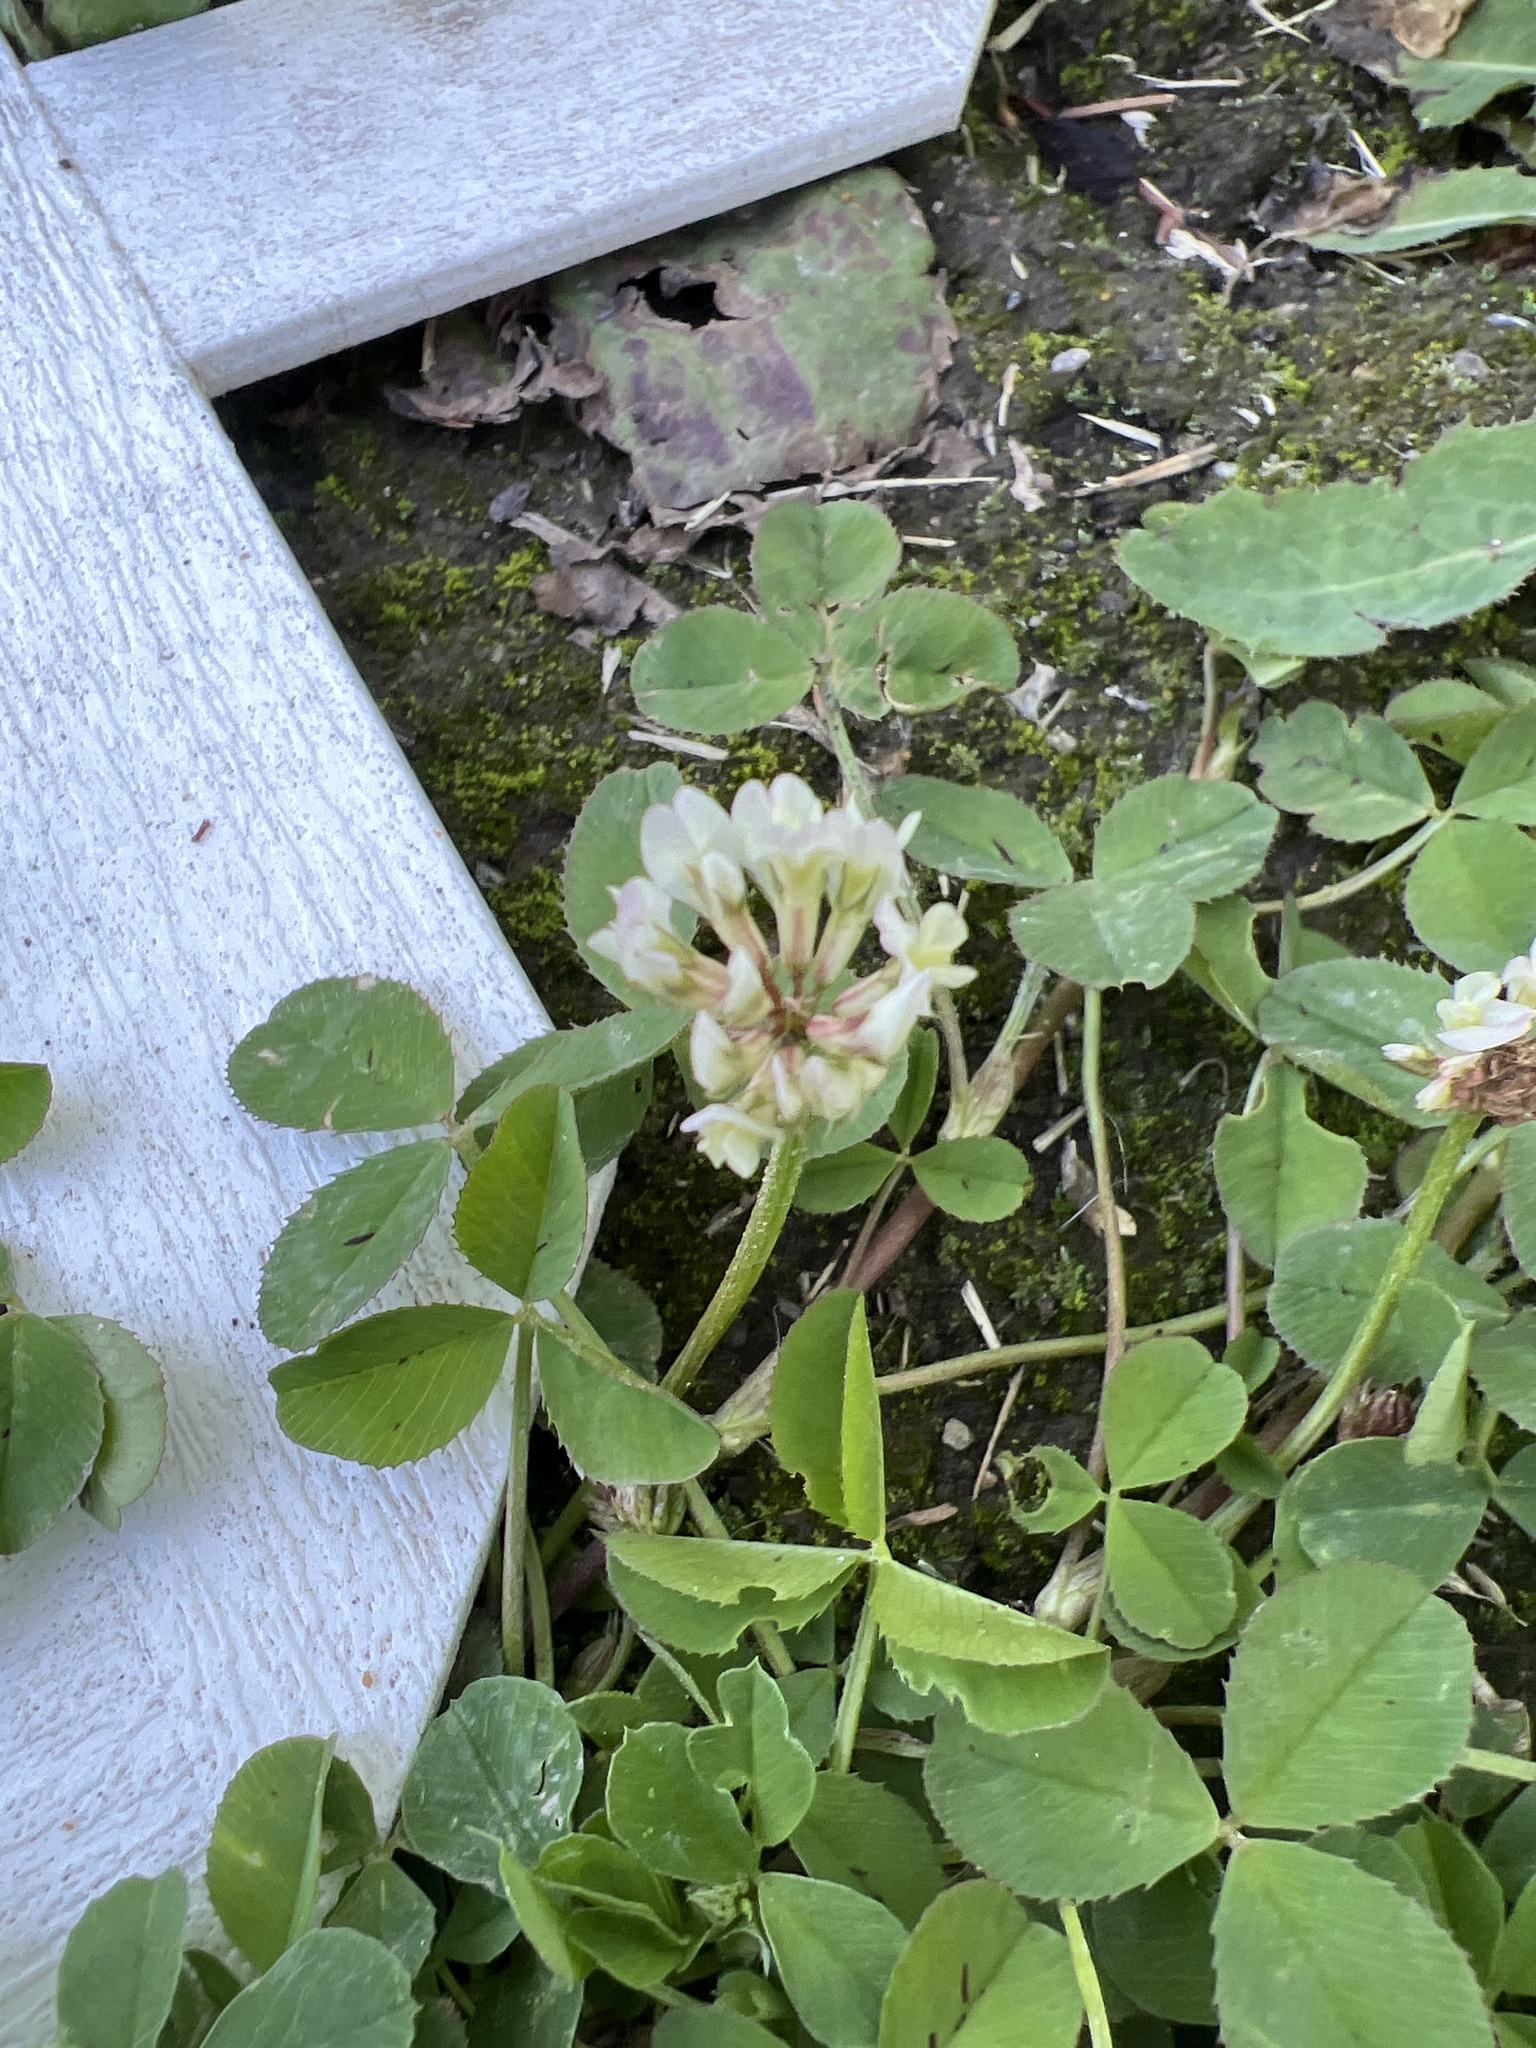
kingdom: Plantae
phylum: Tracheophyta
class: Magnoliopsida
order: Fabales
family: Fabaceae
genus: Trifolium
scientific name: Trifolium repens
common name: White clover
